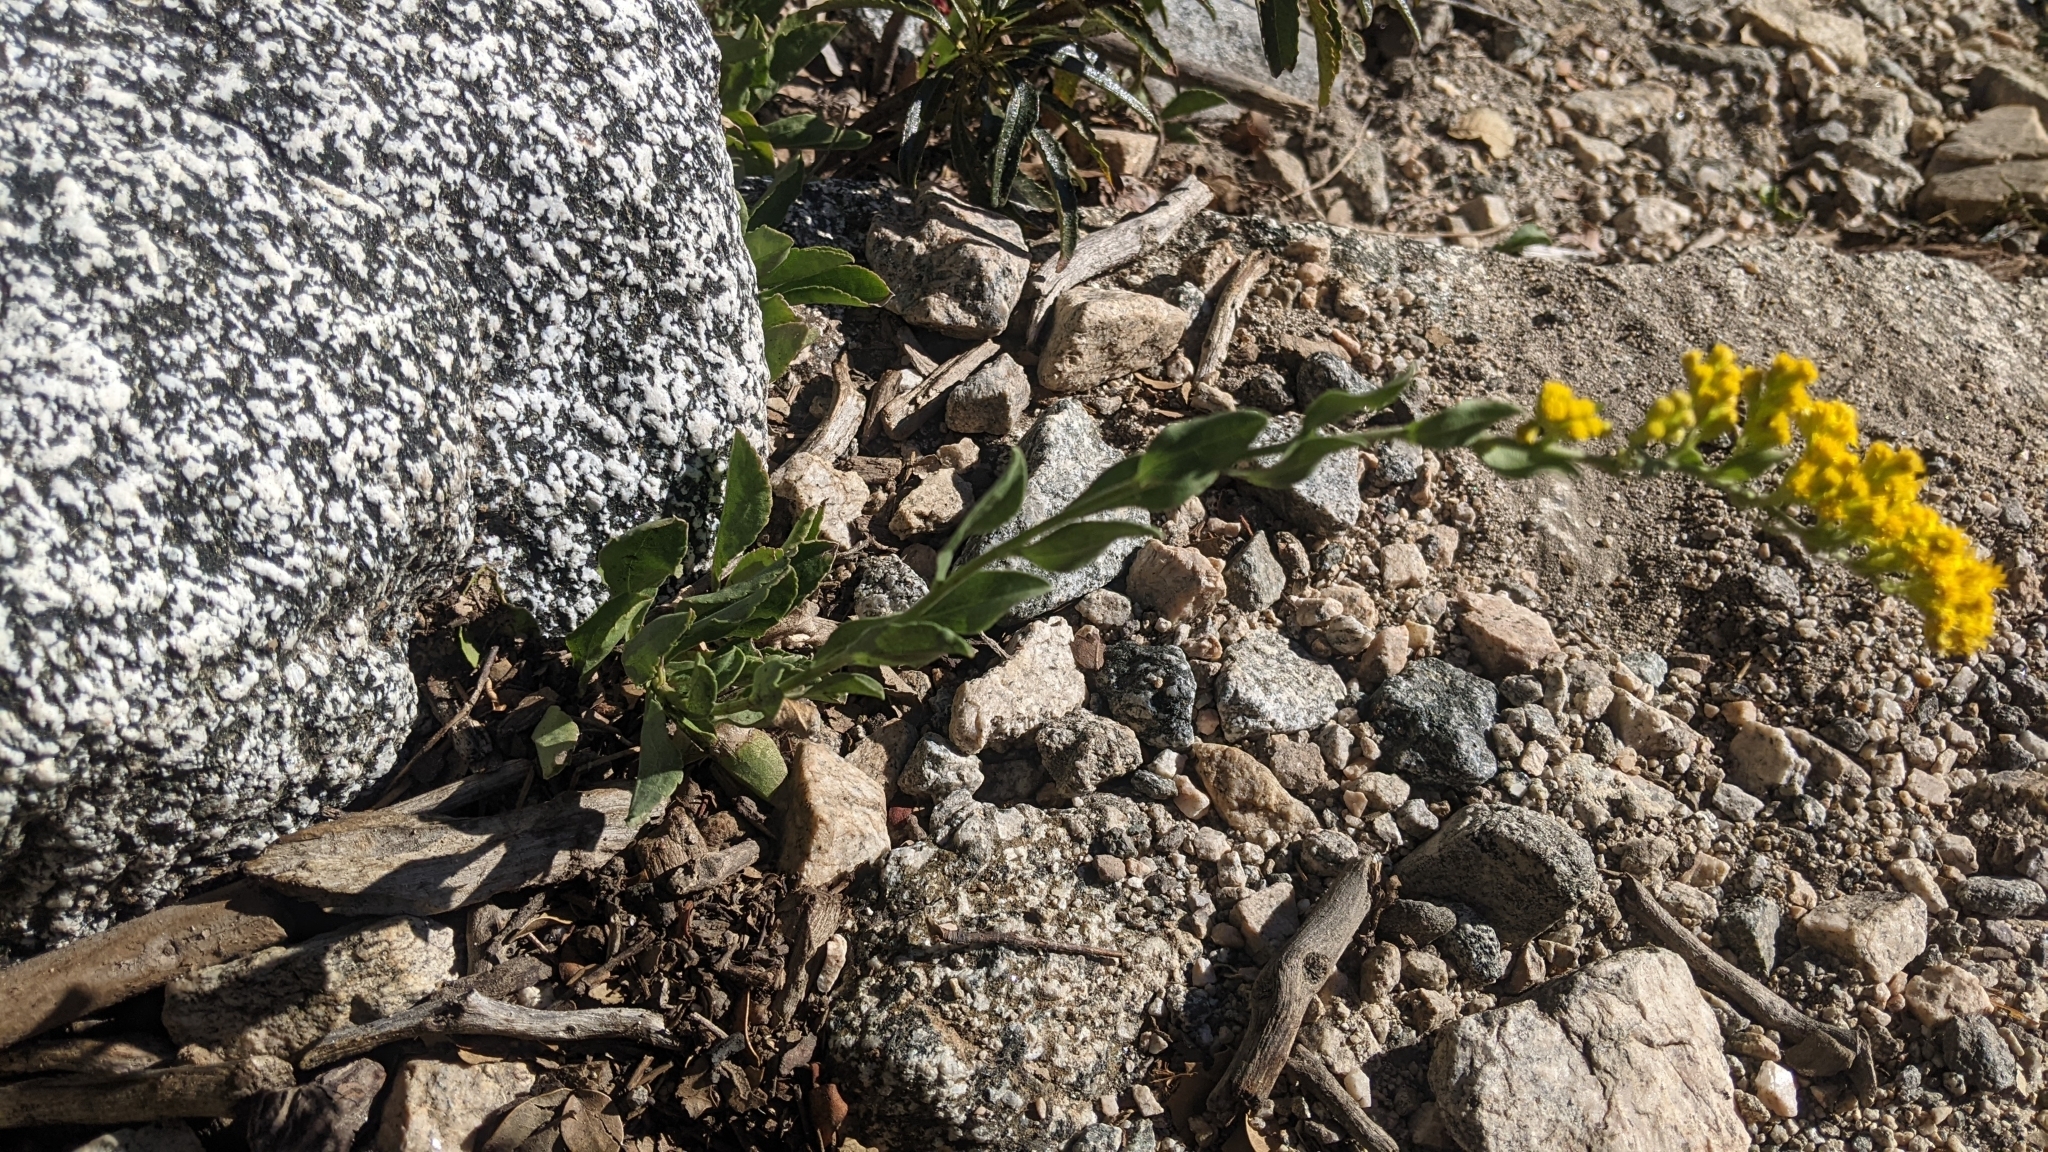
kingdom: Plantae
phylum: Tracheophyta
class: Magnoliopsida
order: Asterales
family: Asteraceae
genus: Solidago
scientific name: Solidago velutina
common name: Three-nerve goldenrod
